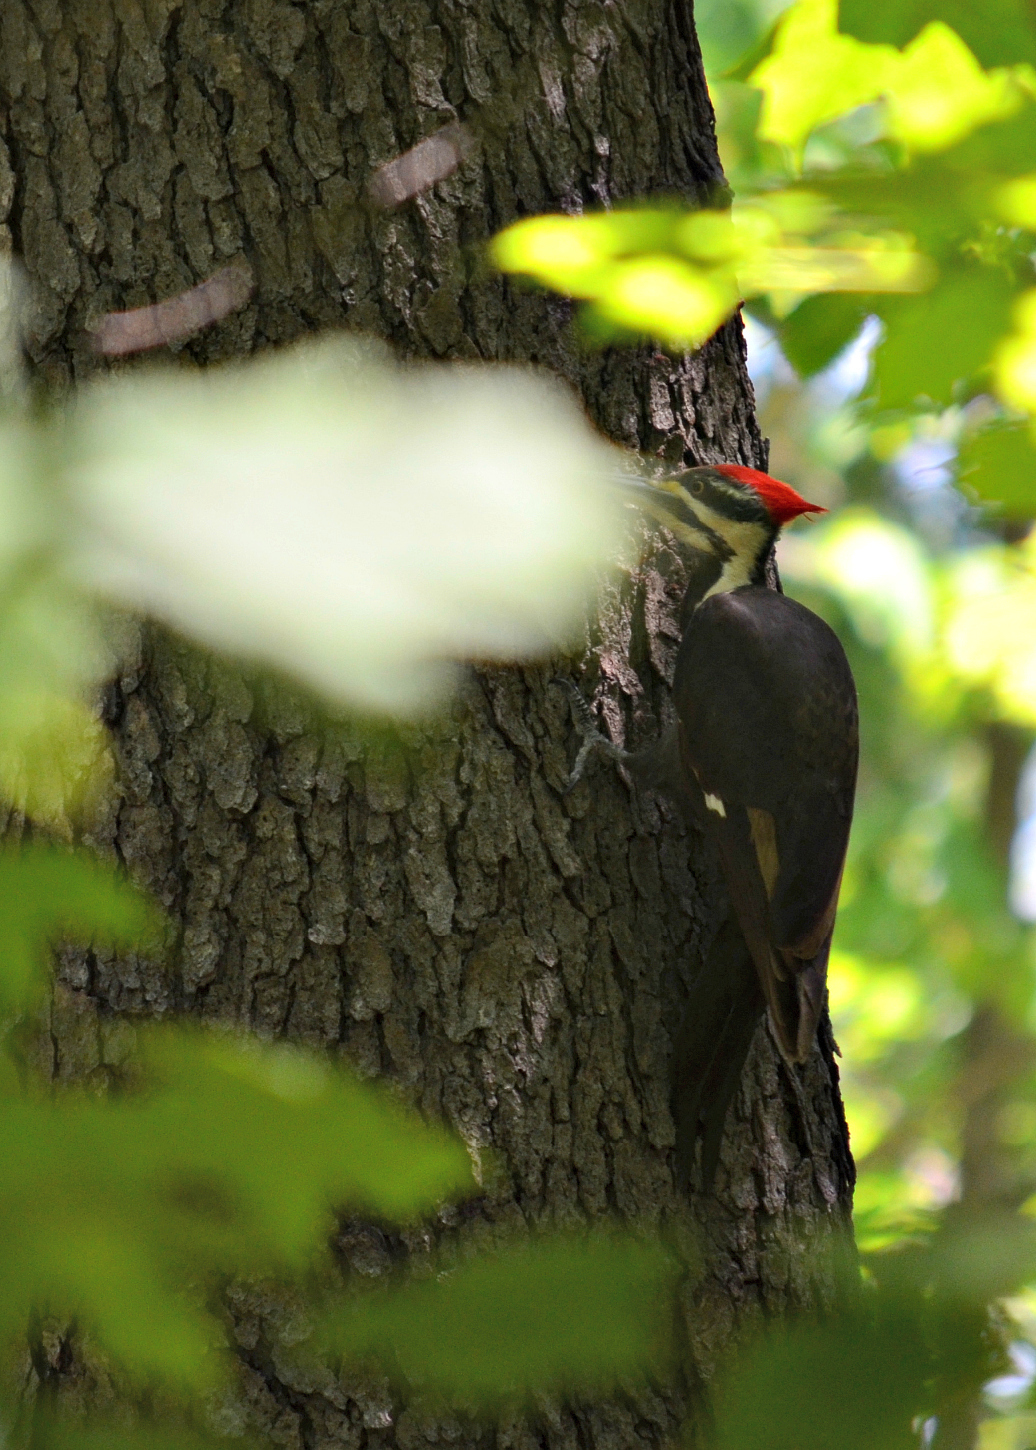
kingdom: Animalia
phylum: Chordata
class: Aves
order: Piciformes
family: Picidae
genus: Dryocopus
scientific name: Dryocopus pileatus
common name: Pileated woodpecker
